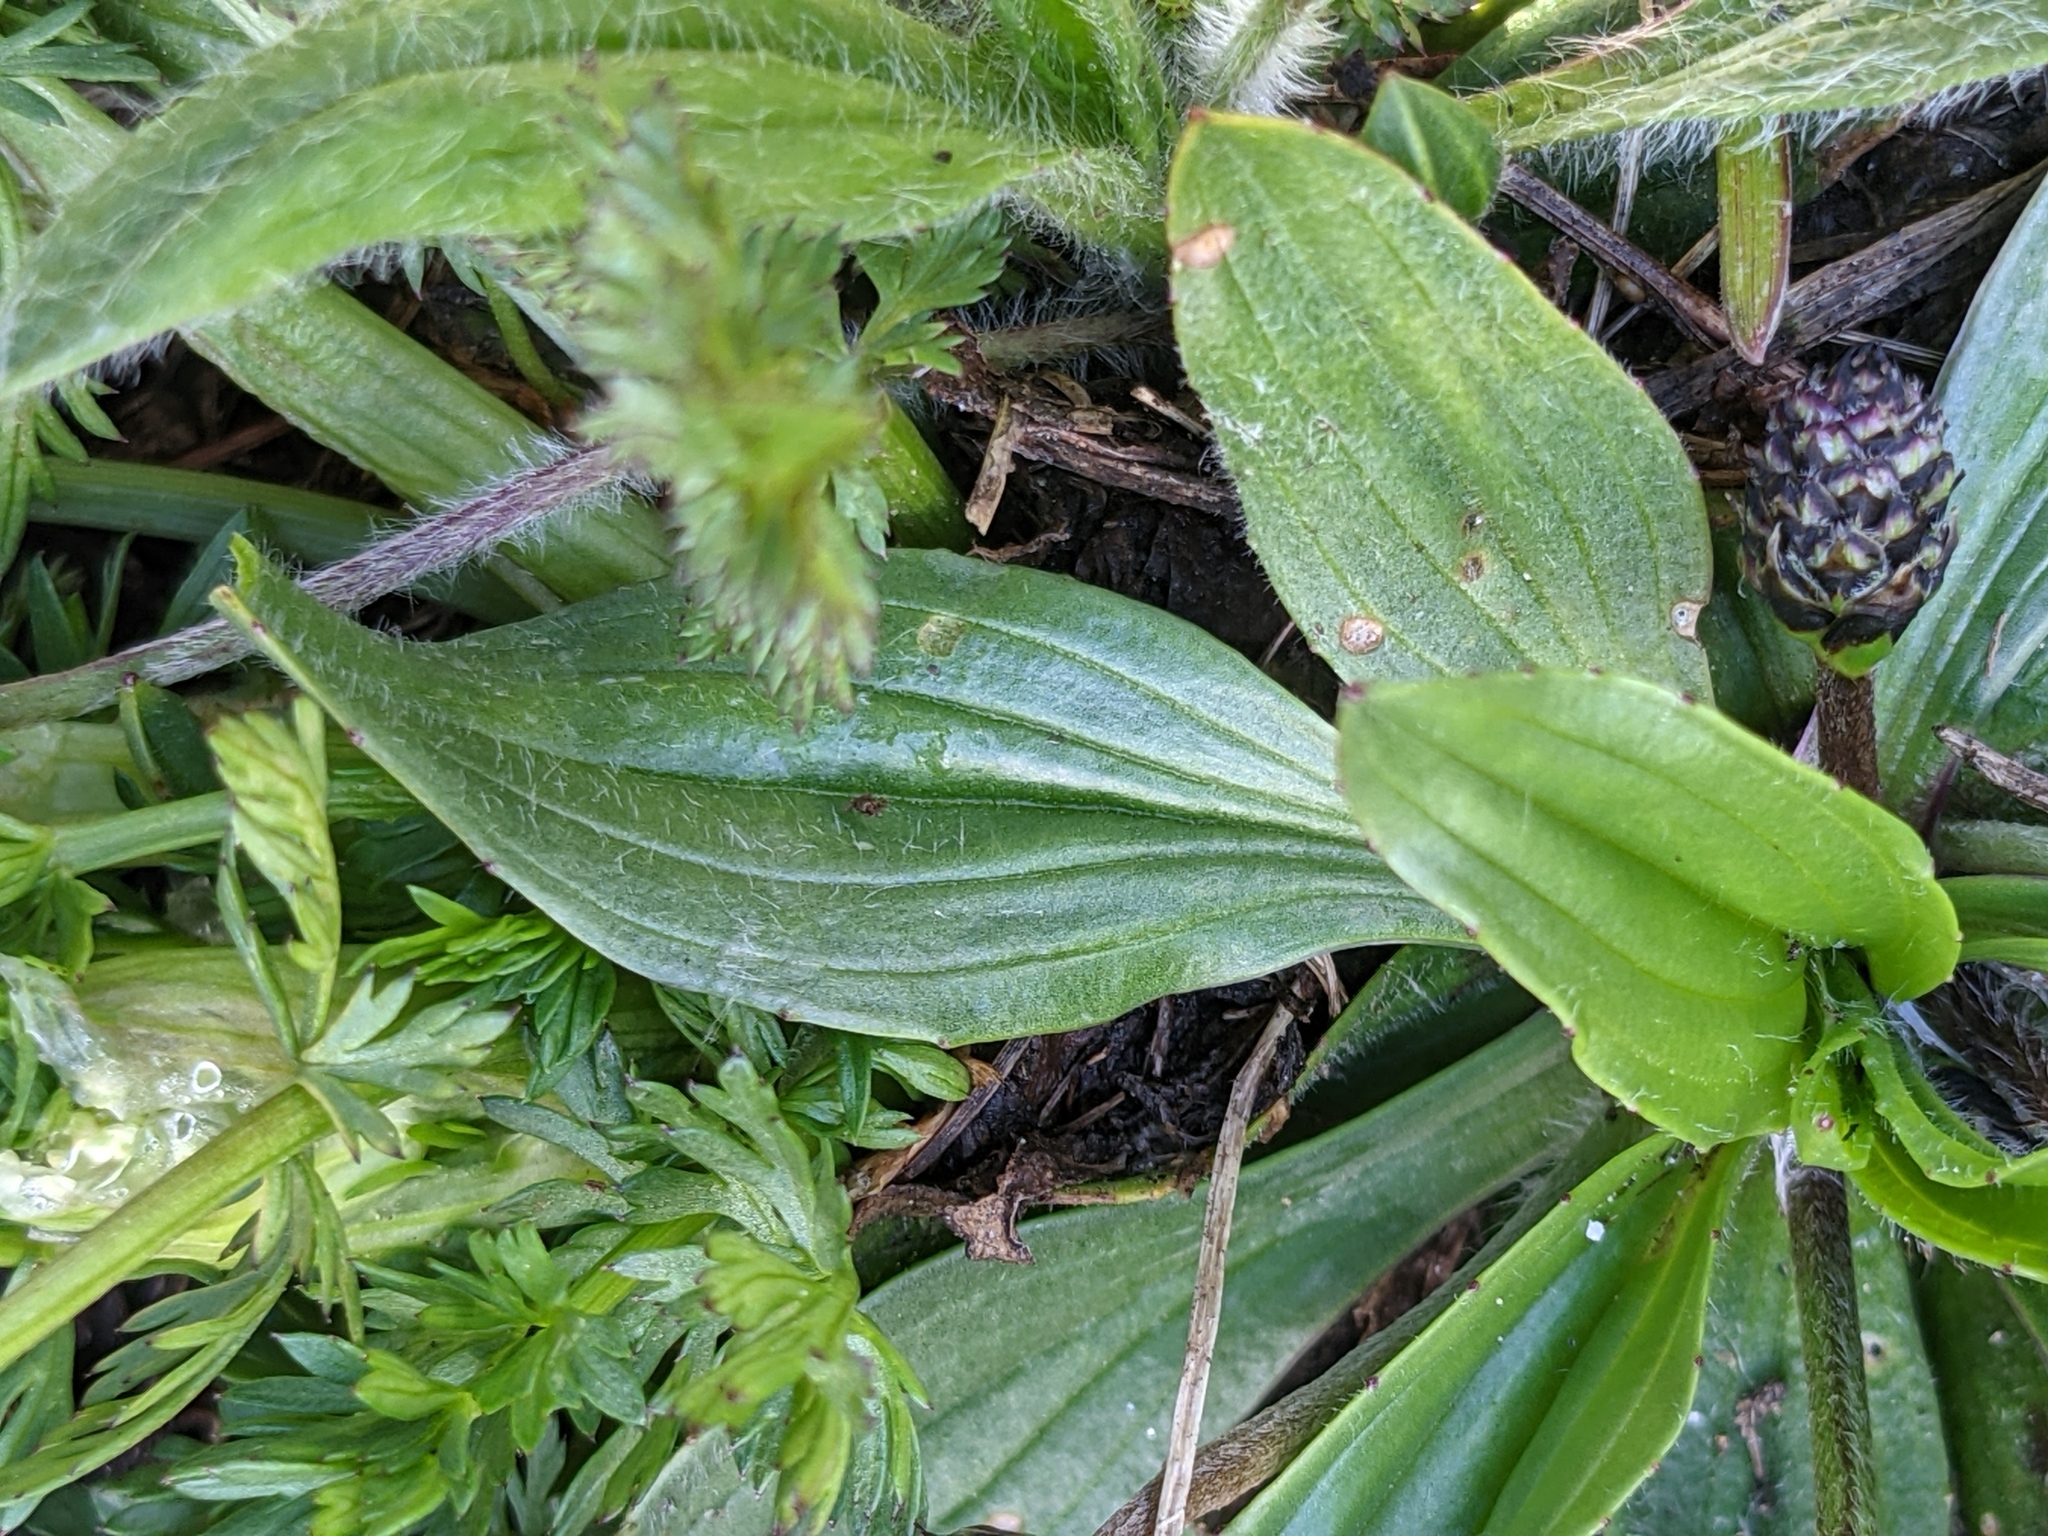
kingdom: Plantae
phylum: Tracheophyta
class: Magnoliopsida
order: Lamiales
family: Plantaginaceae
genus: Plantago
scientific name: Plantago lanceolata
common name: Ribwort plantain
